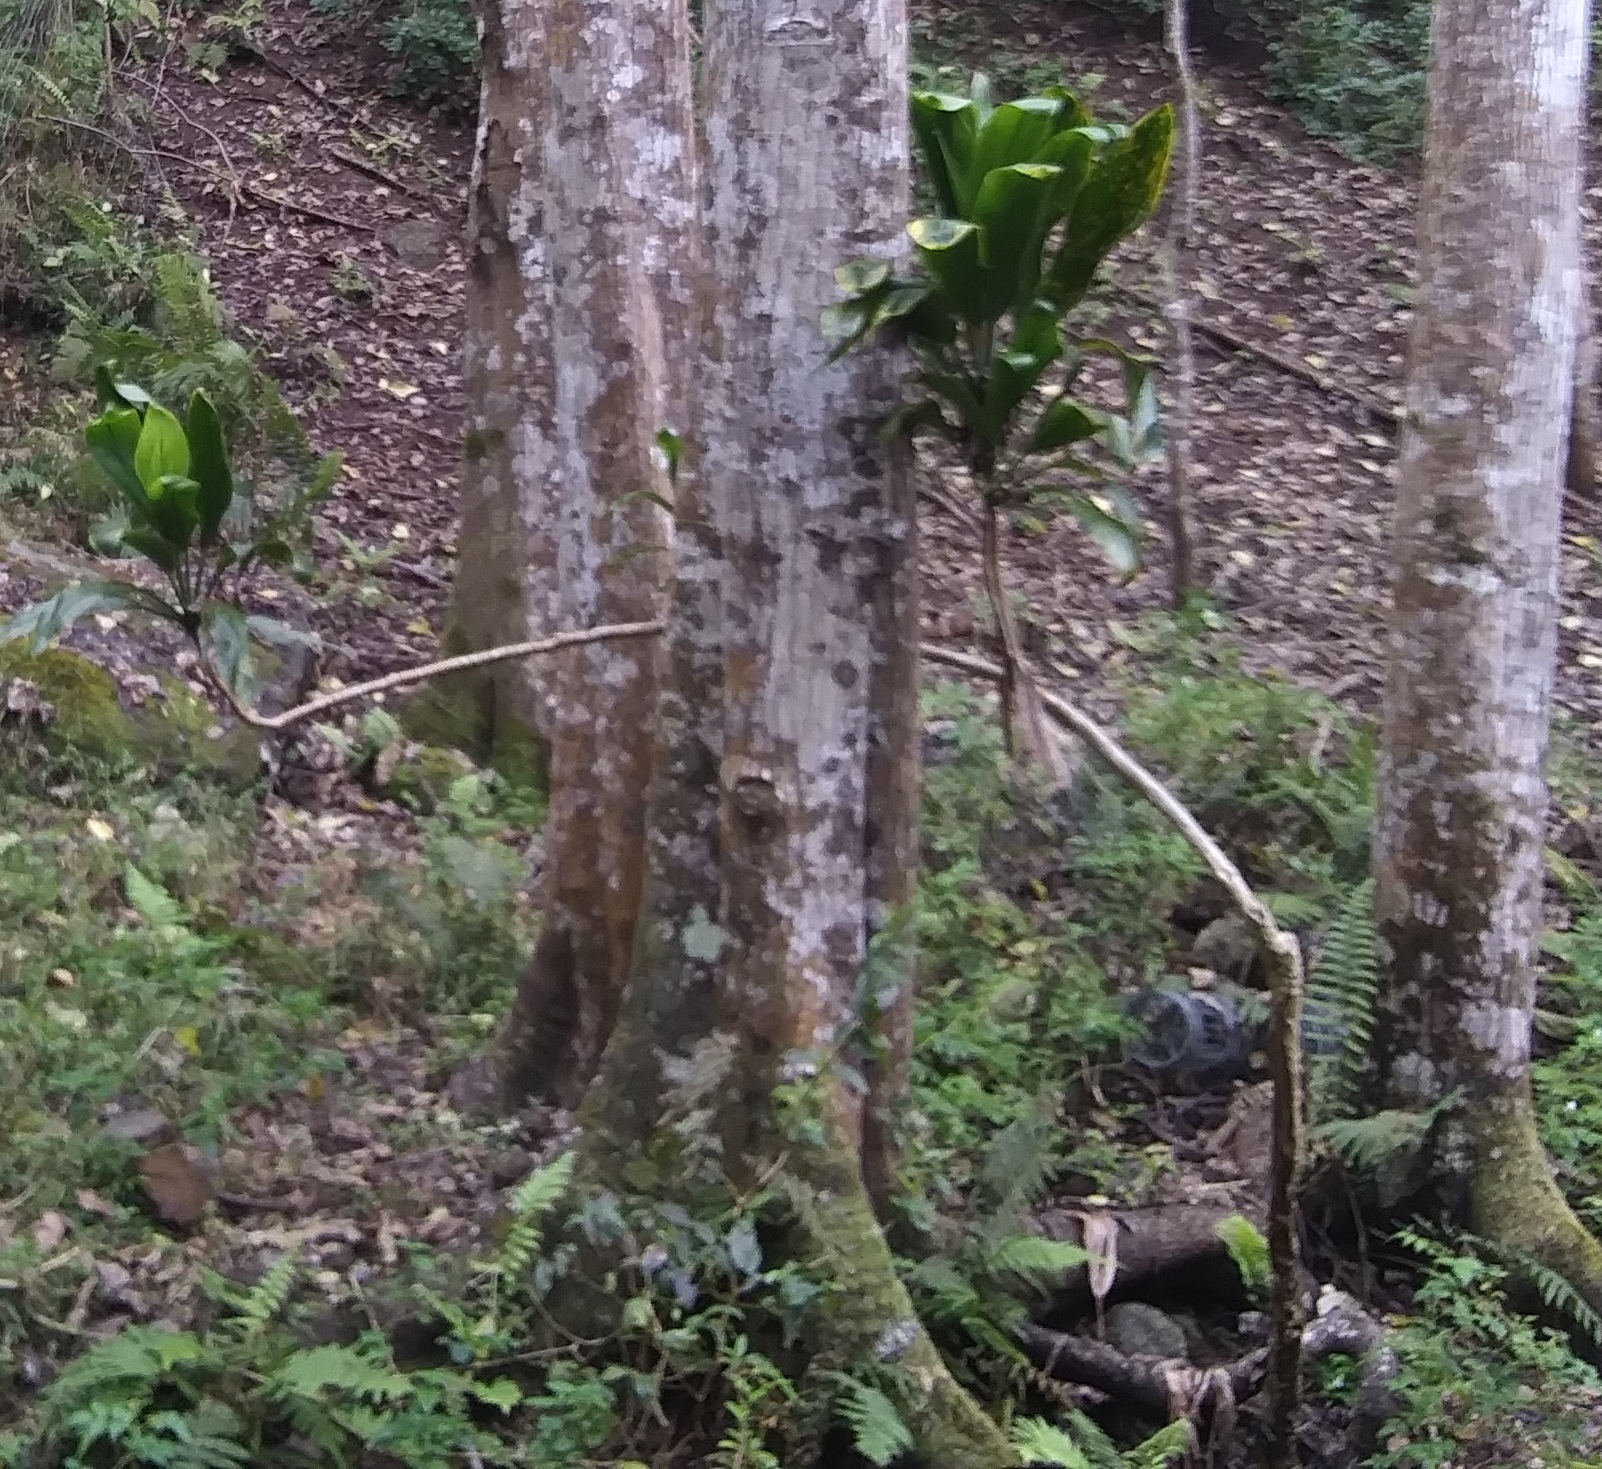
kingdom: Plantae
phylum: Tracheophyta
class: Liliopsida
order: Asparagales
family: Asparagaceae
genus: Cordyline
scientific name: Cordyline fruticosa
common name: Good-luck-plant
